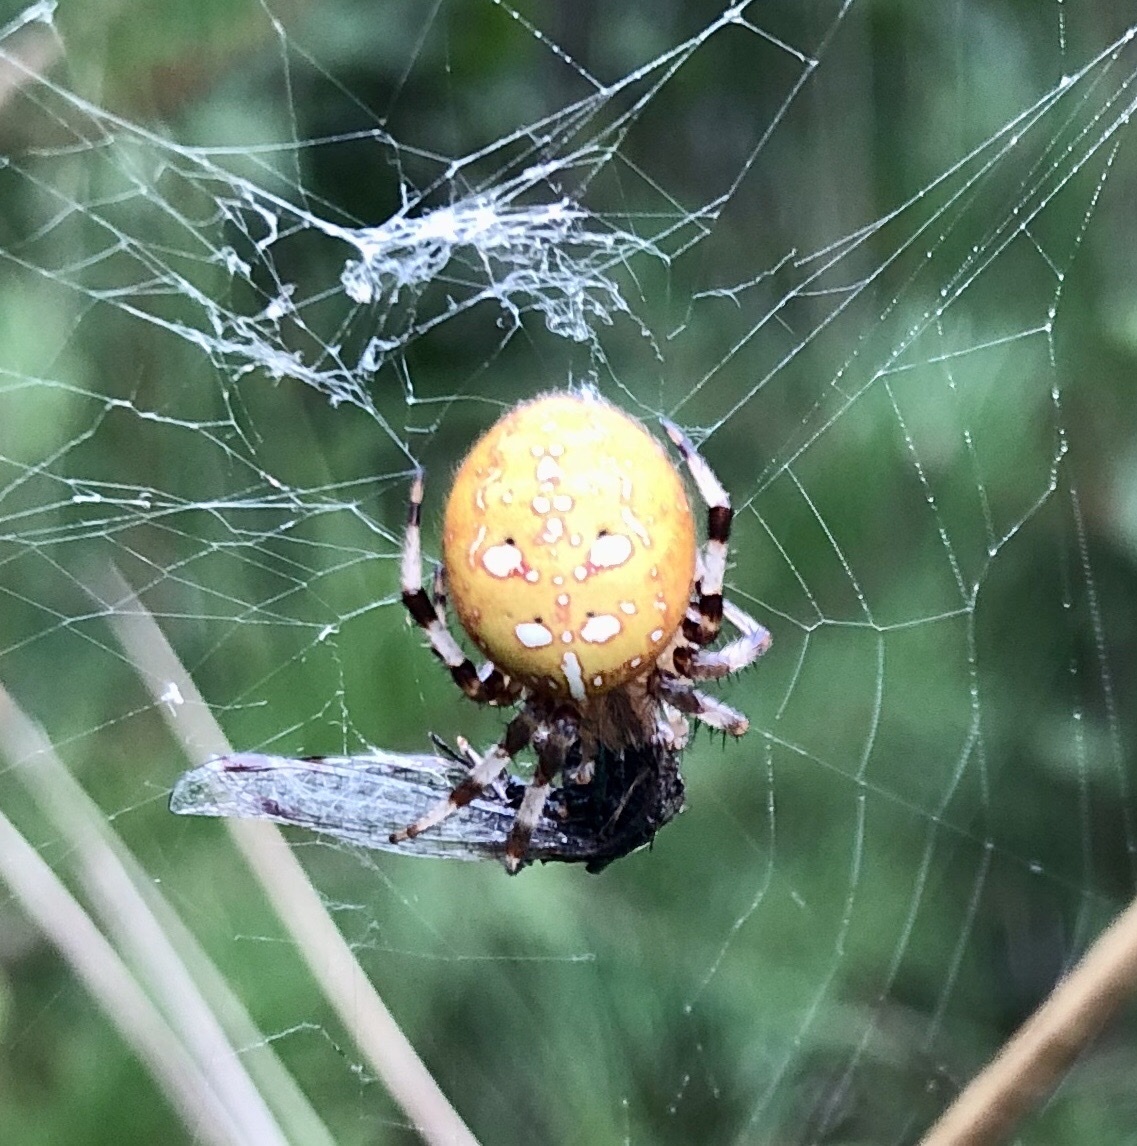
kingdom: Animalia
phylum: Arthropoda
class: Arachnida
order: Araneae
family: Araneidae
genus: Araneus
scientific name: Araneus quadratus
